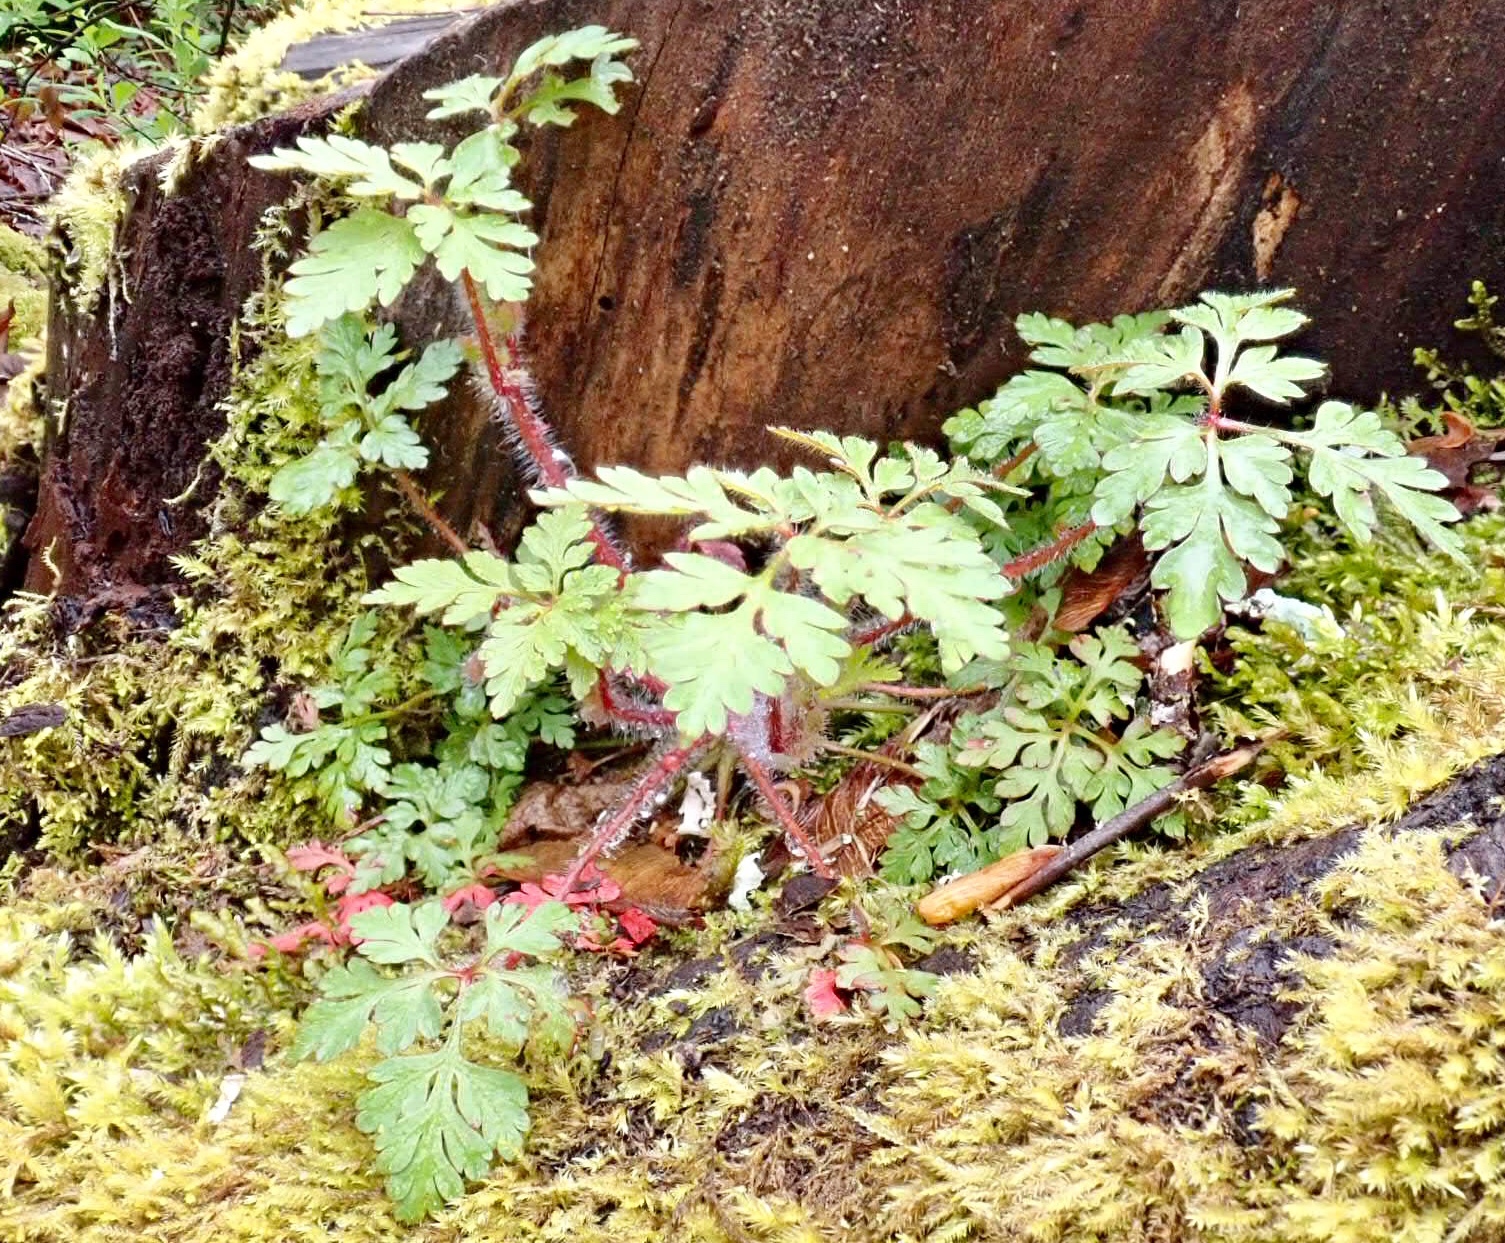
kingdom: Plantae
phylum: Tracheophyta
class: Magnoliopsida
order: Geraniales
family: Geraniaceae
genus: Geranium
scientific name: Geranium robertianum
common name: Herb-robert
